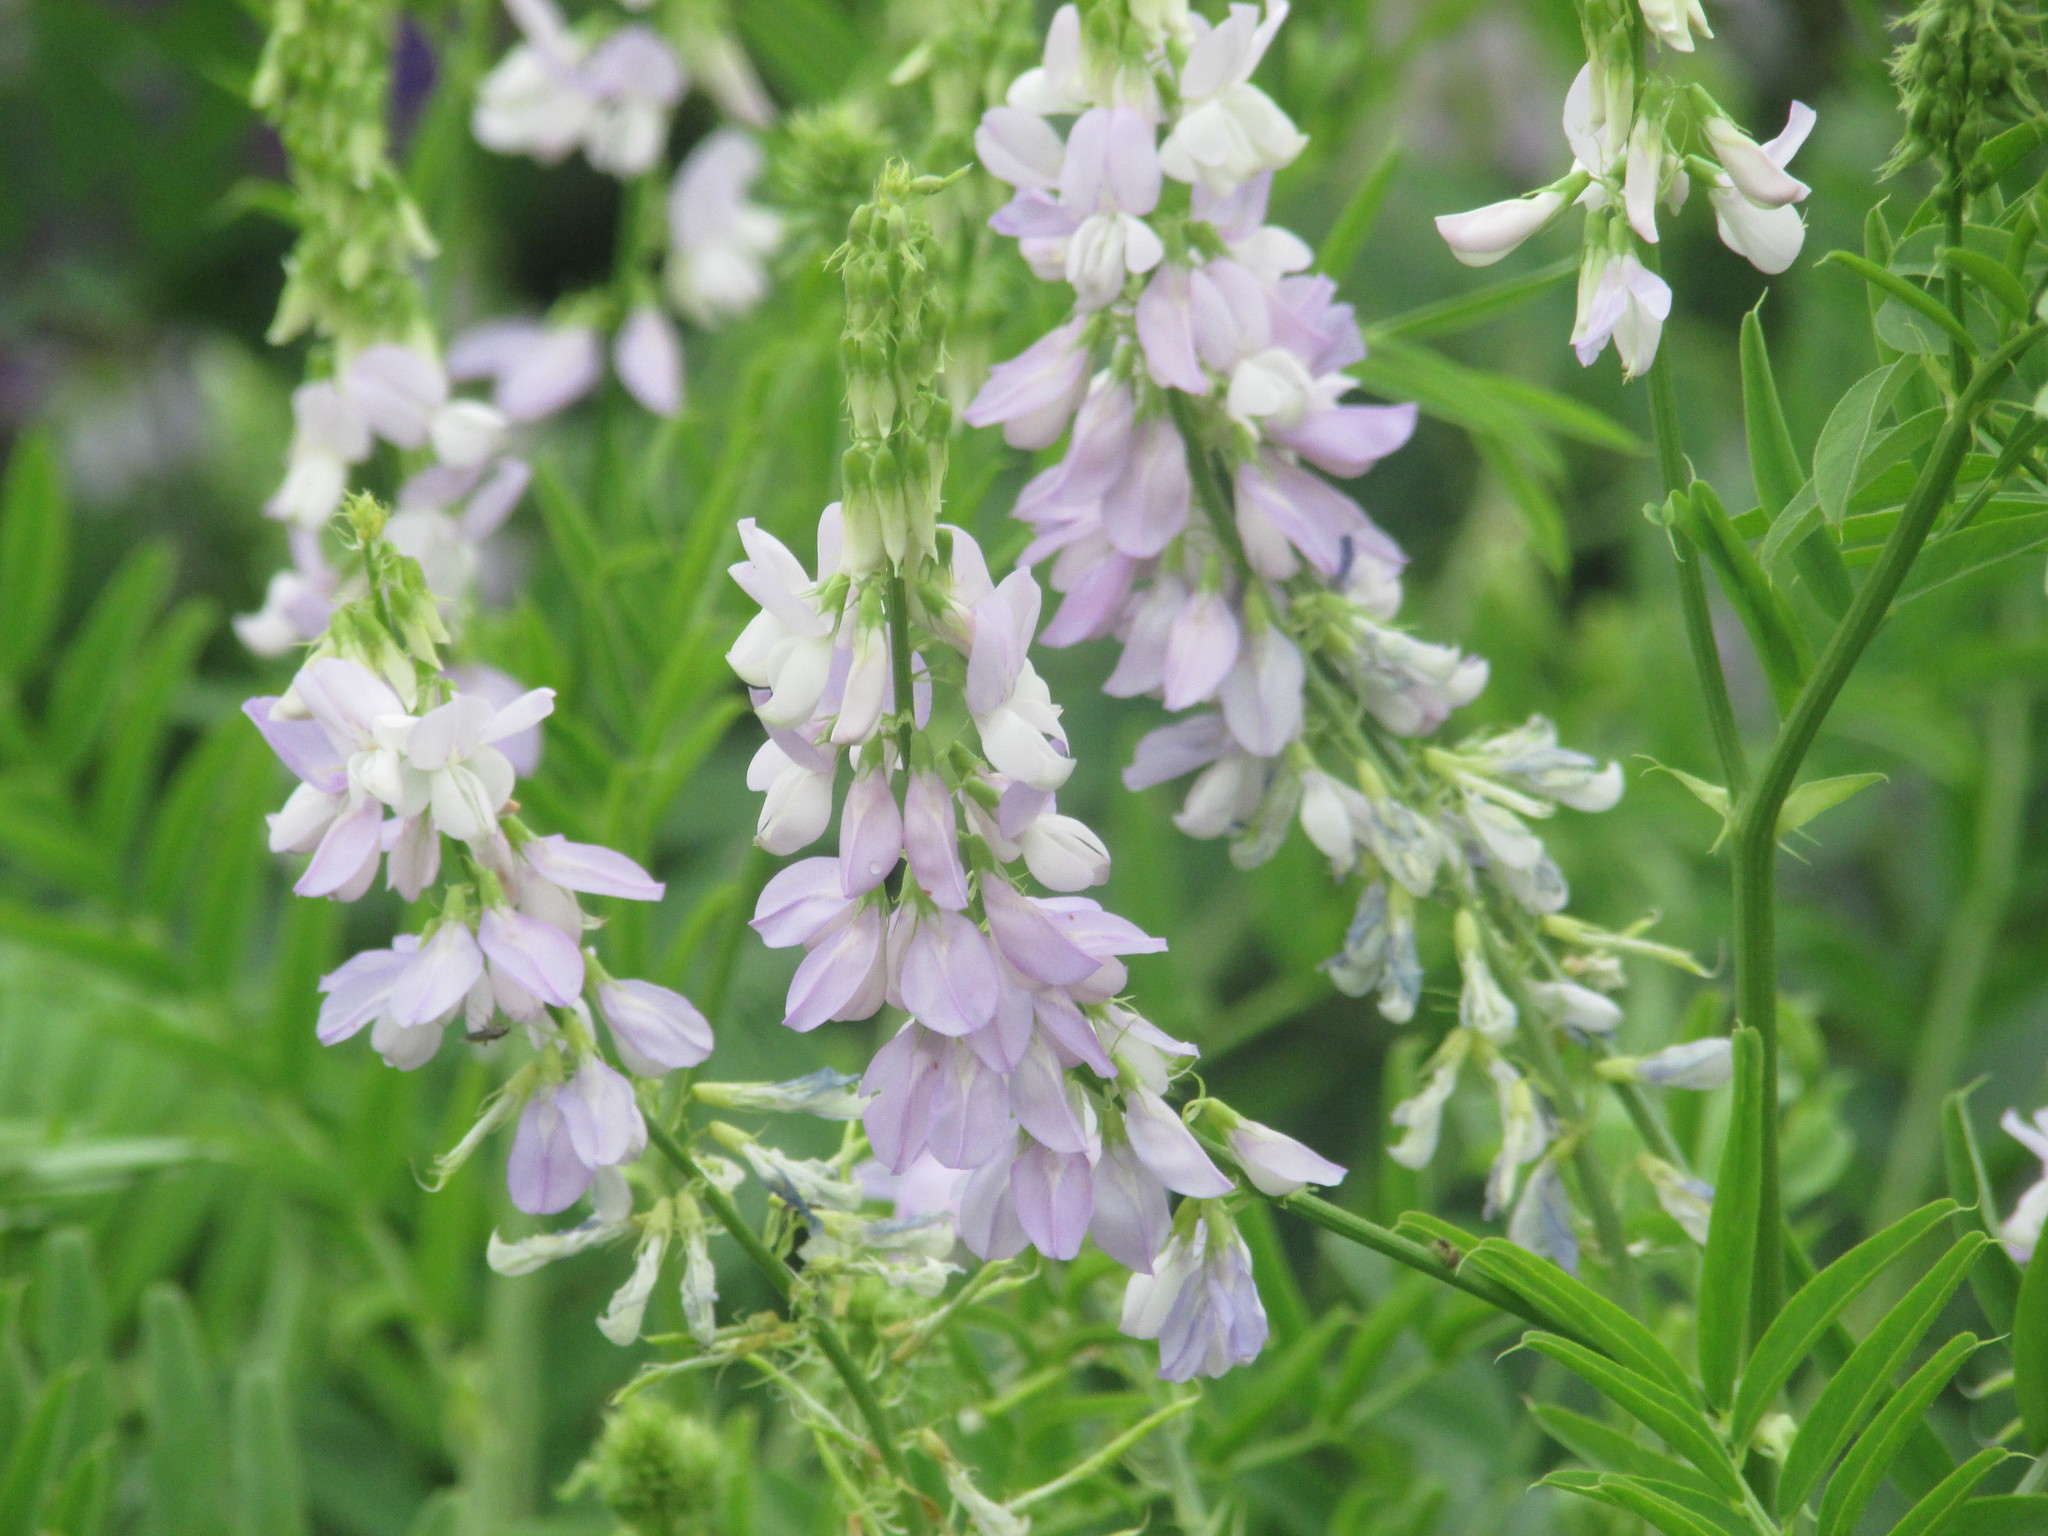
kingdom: Plantae
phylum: Tracheophyta
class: Magnoliopsida
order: Fabales
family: Fabaceae
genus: Galega
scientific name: Galega officinalis
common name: Goat's-rue
